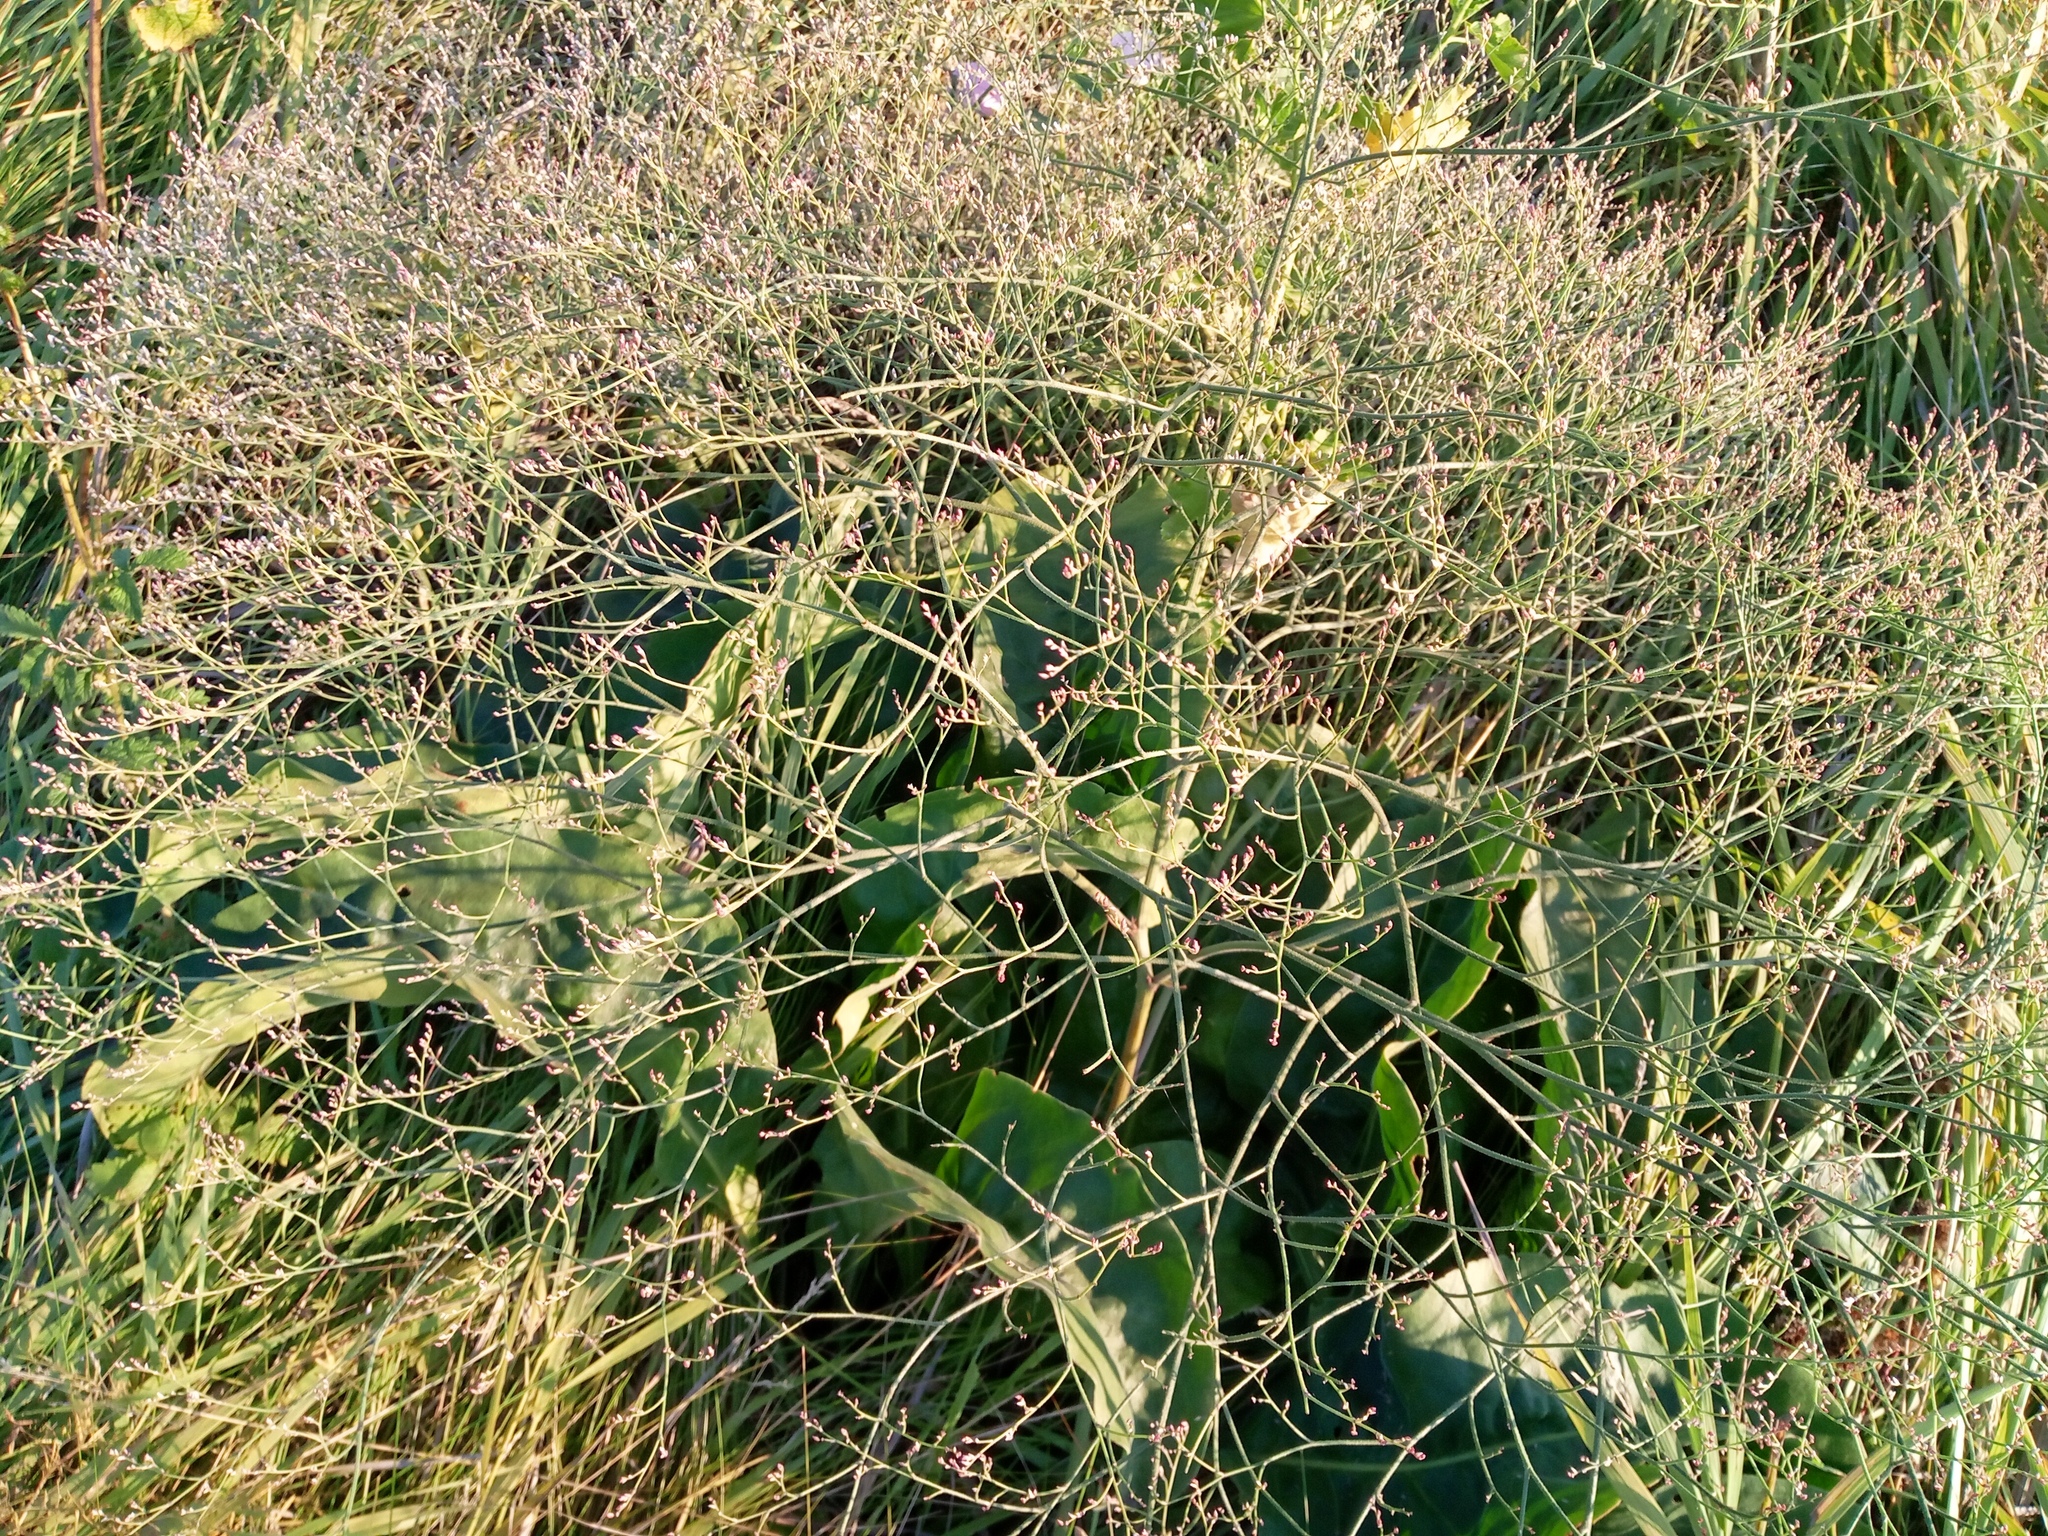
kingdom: Plantae
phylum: Tracheophyta
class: Magnoliopsida
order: Caryophyllales
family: Plumbaginaceae
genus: Limonium
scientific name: Limonium platyphyllum
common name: Florist's sea lavender
